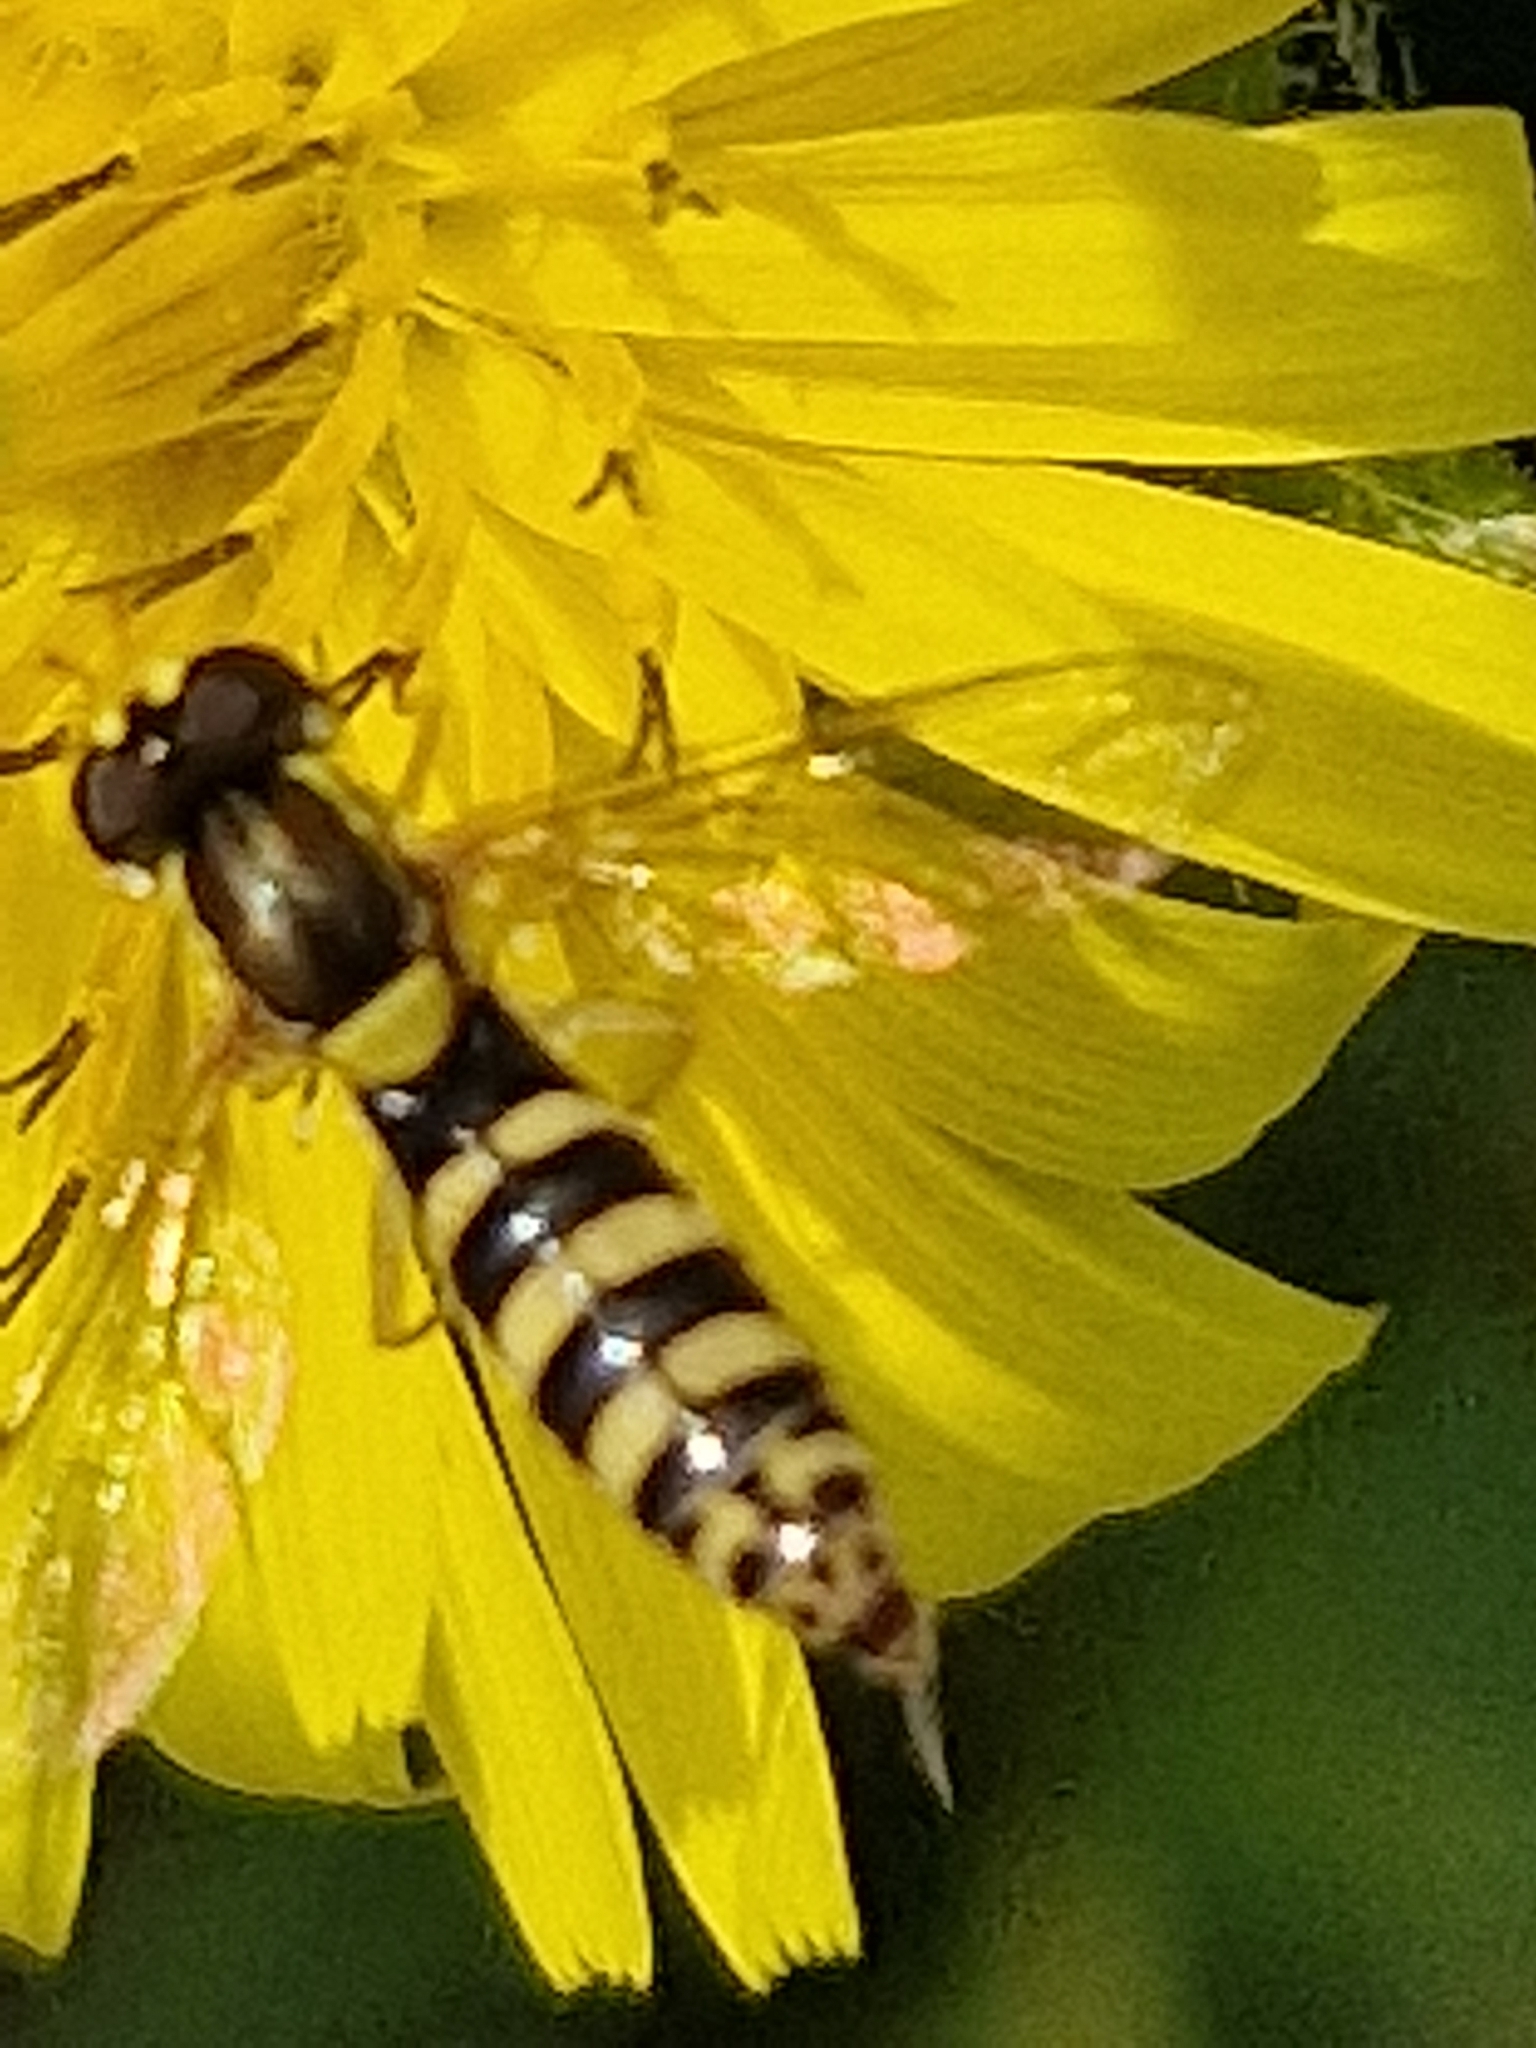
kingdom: Animalia
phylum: Arthropoda
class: Insecta
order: Diptera
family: Syrphidae
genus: Sphaerophoria
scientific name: Sphaerophoria
